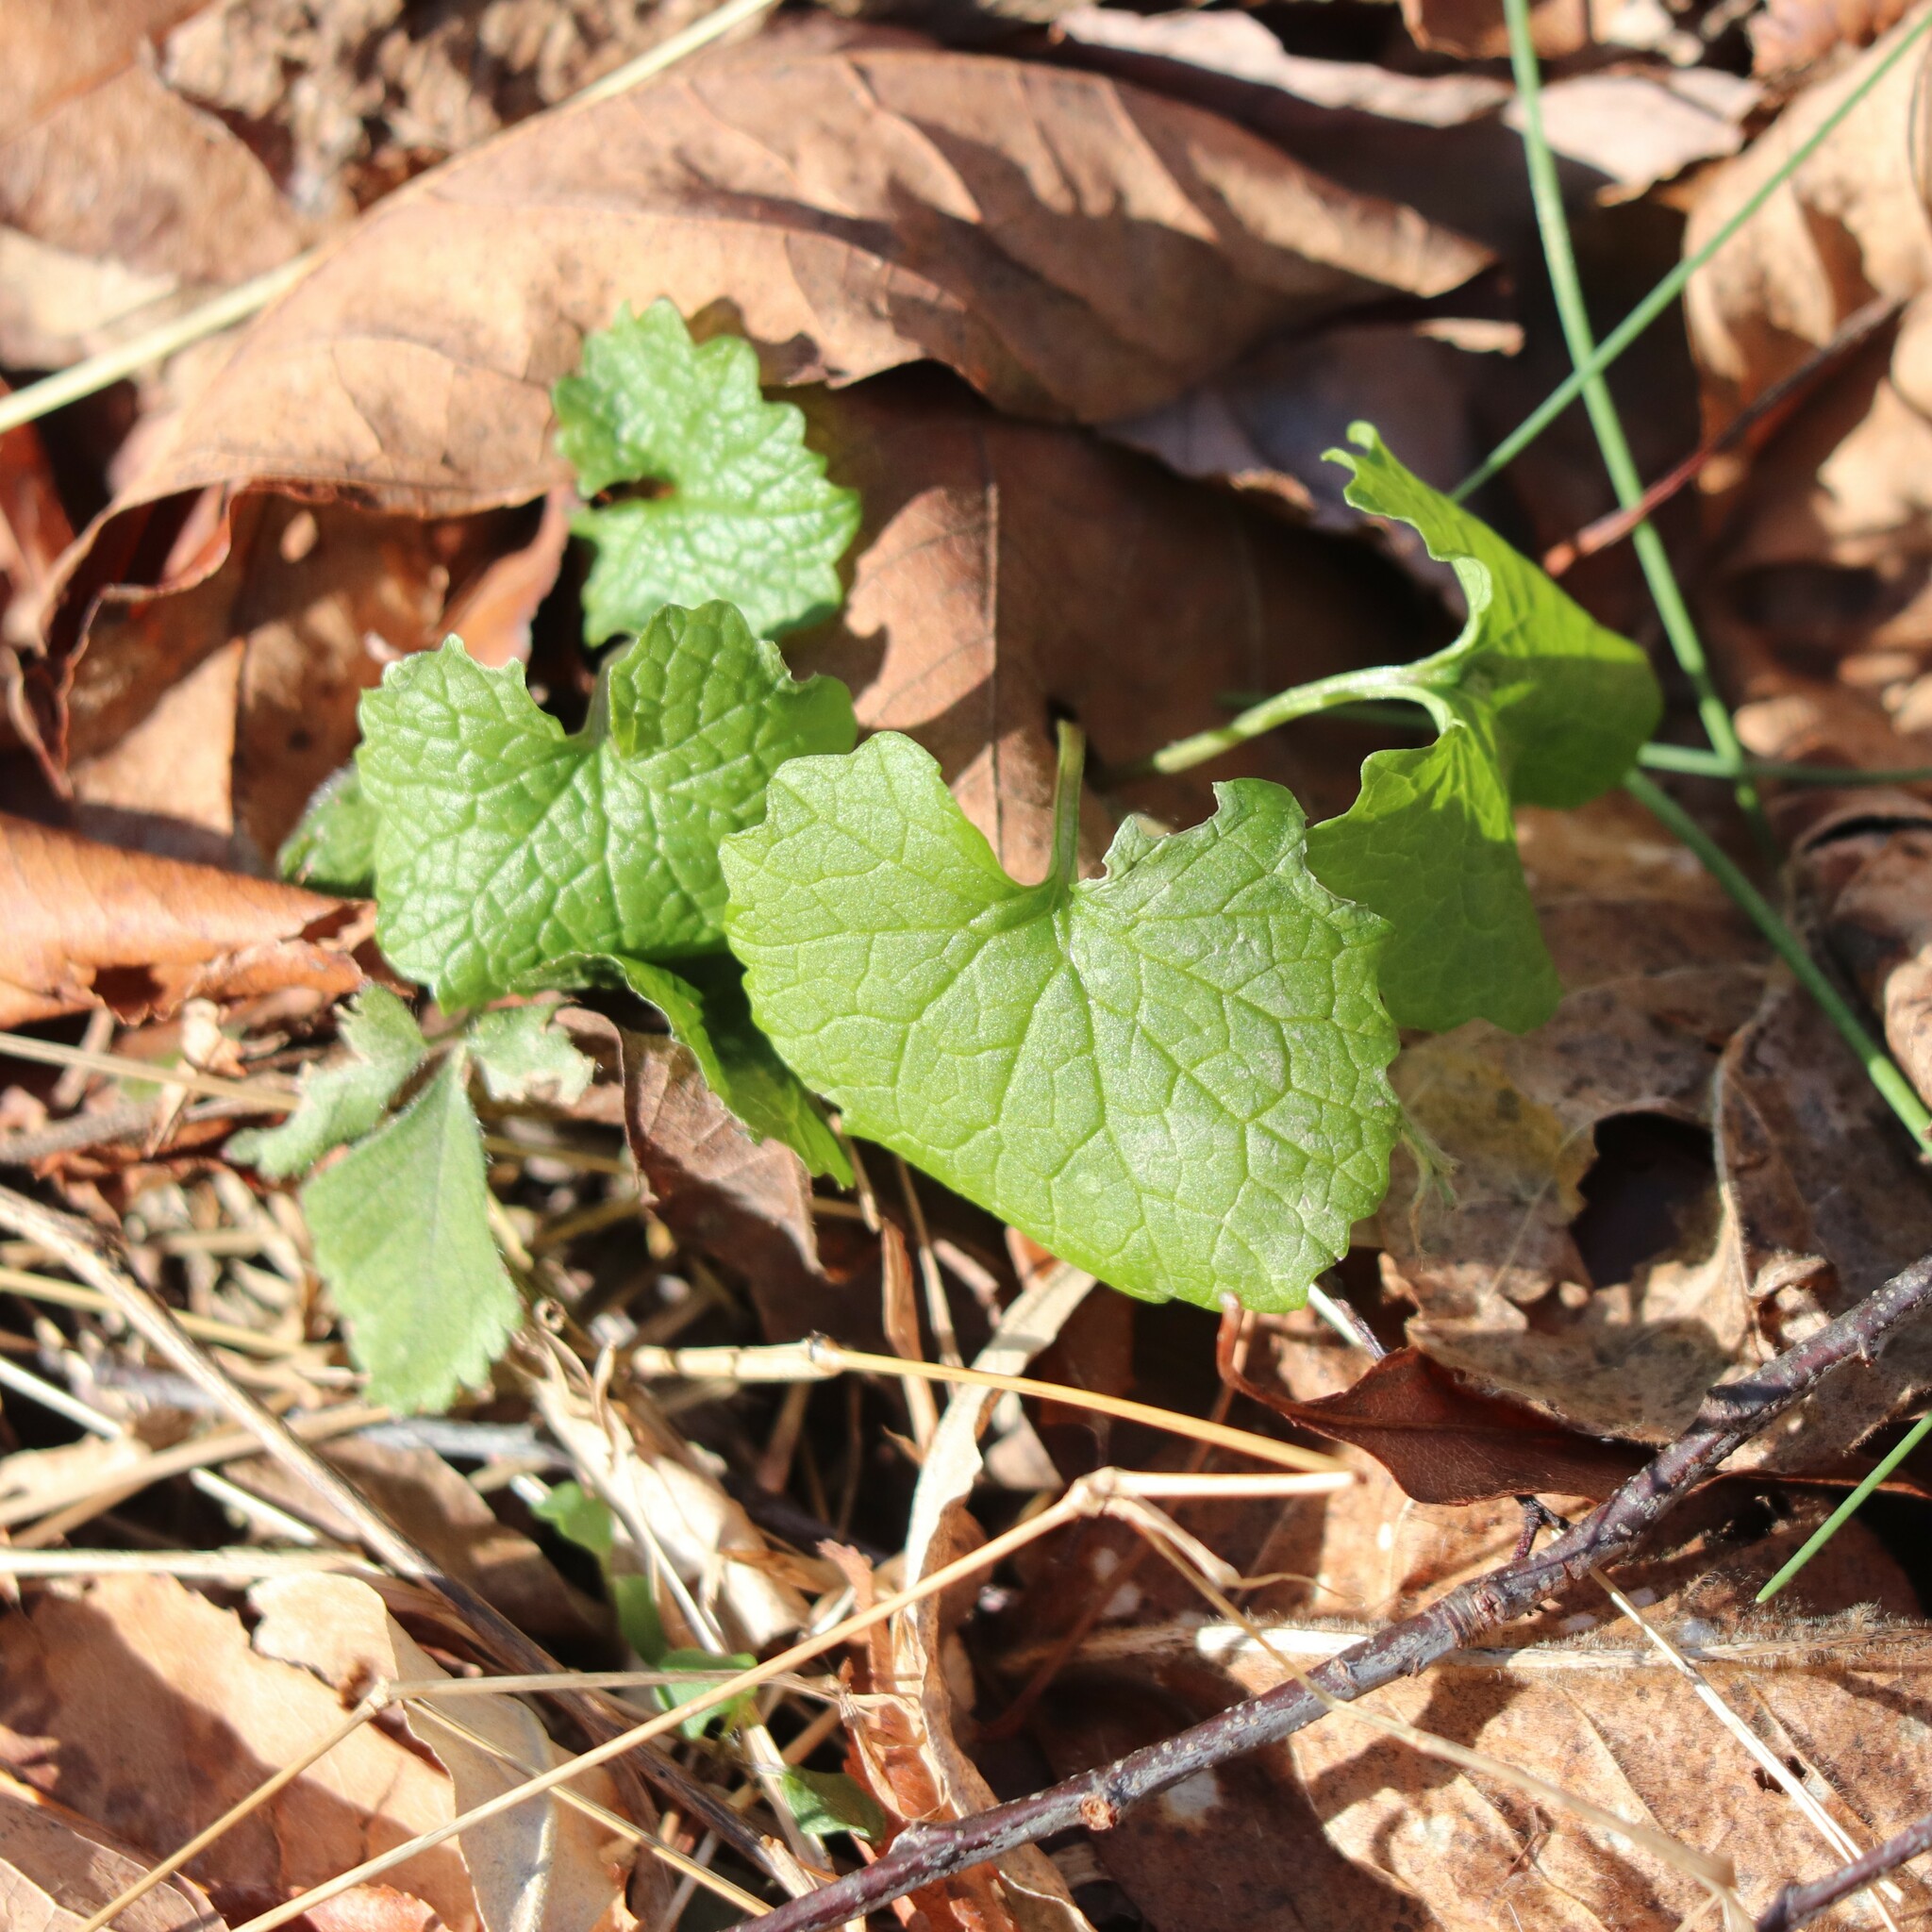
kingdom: Plantae
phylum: Tracheophyta
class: Magnoliopsida
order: Brassicales
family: Brassicaceae
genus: Alliaria
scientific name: Alliaria petiolata
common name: Garlic mustard
